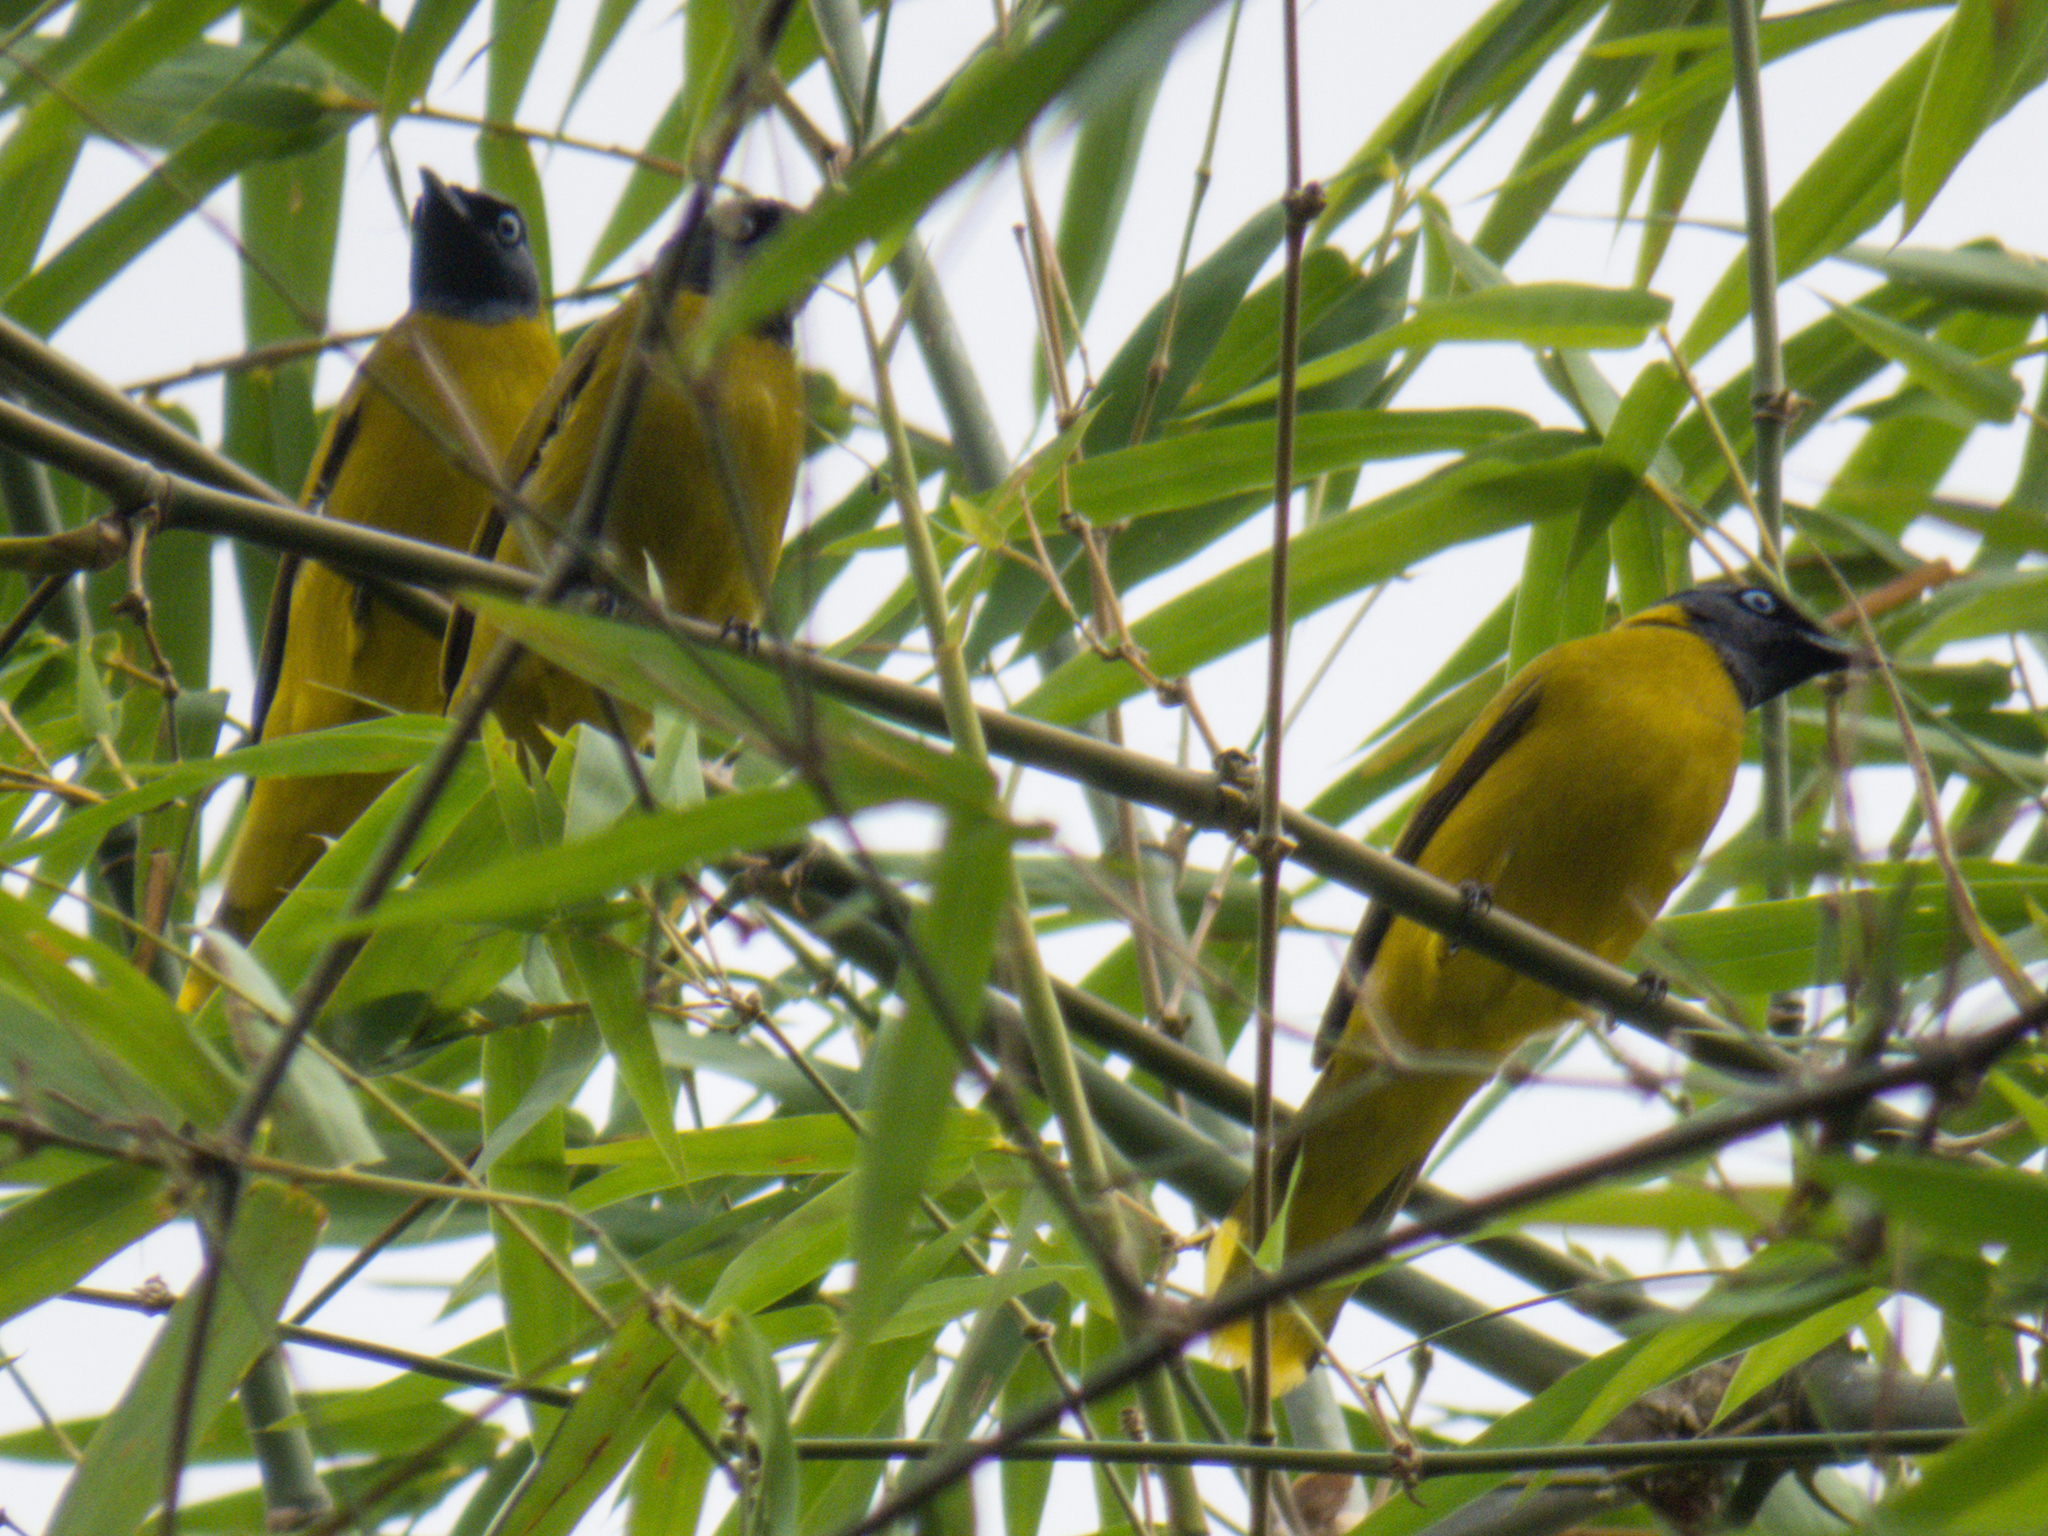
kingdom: Animalia
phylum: Chordata
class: Aves
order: Passeriformes
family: Pycnonotidae
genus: Microtarsus
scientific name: Microtarsus
